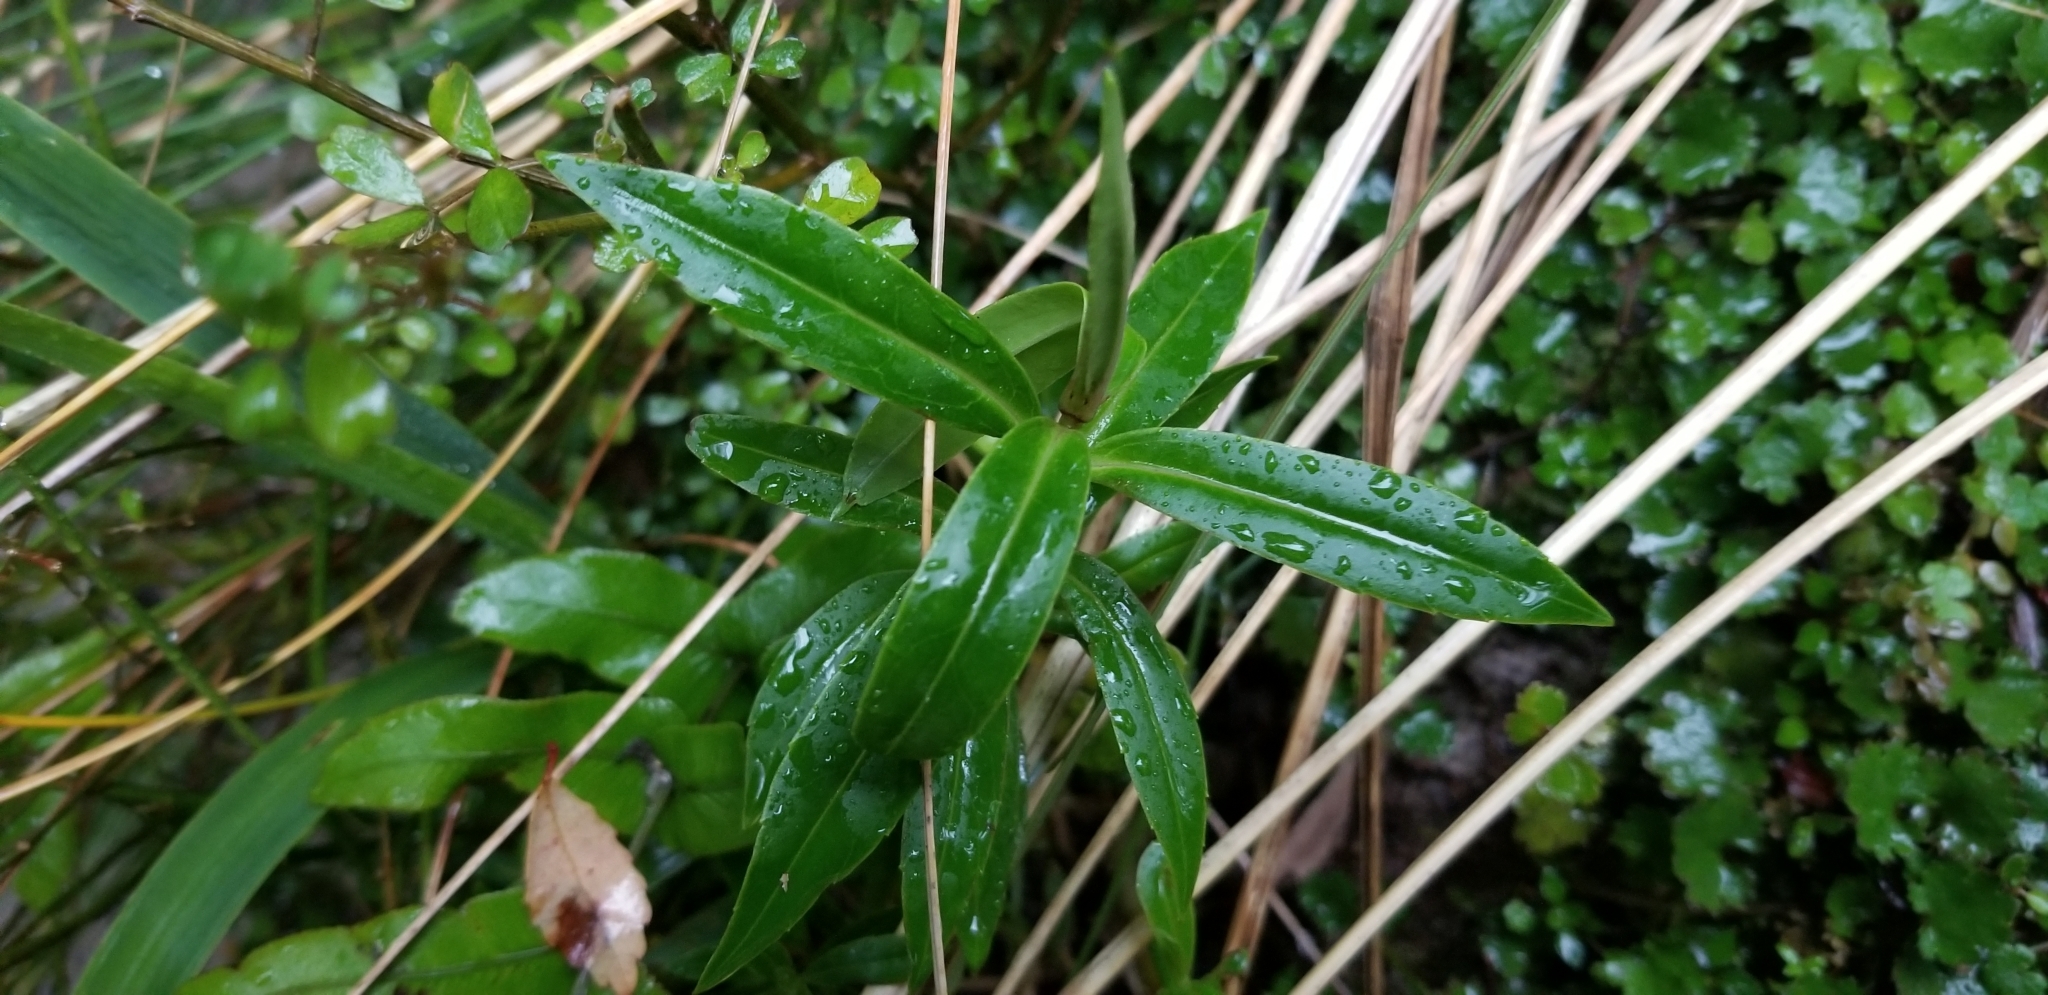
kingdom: Plantae
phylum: Tracheophyta
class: Magnoliopsida
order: Lamiales
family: Plantaginaceae
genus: Veronica
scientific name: Veronica salicifolia
